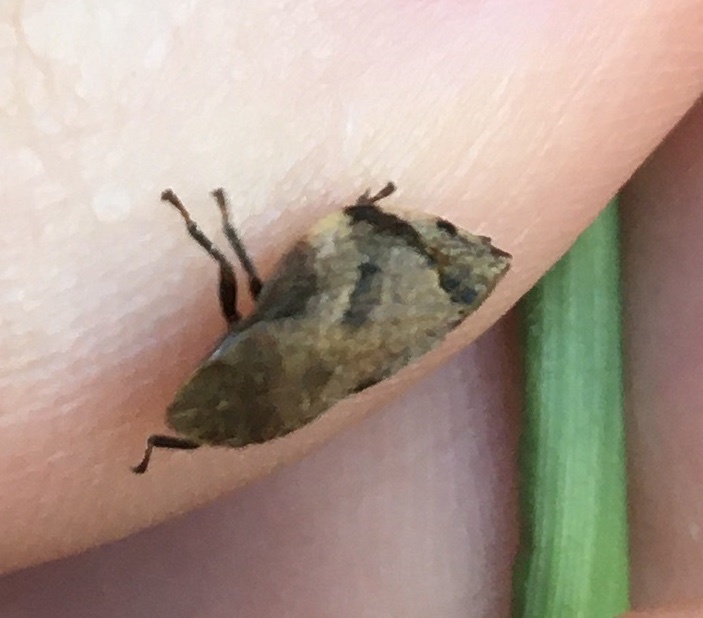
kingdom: Animalia
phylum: Arthropoda
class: Insecta
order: Hemiptera
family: Aphrophoridae
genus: Lepyronia
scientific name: Lepyronia quadrangularis
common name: Diamond-backed spittlebug
